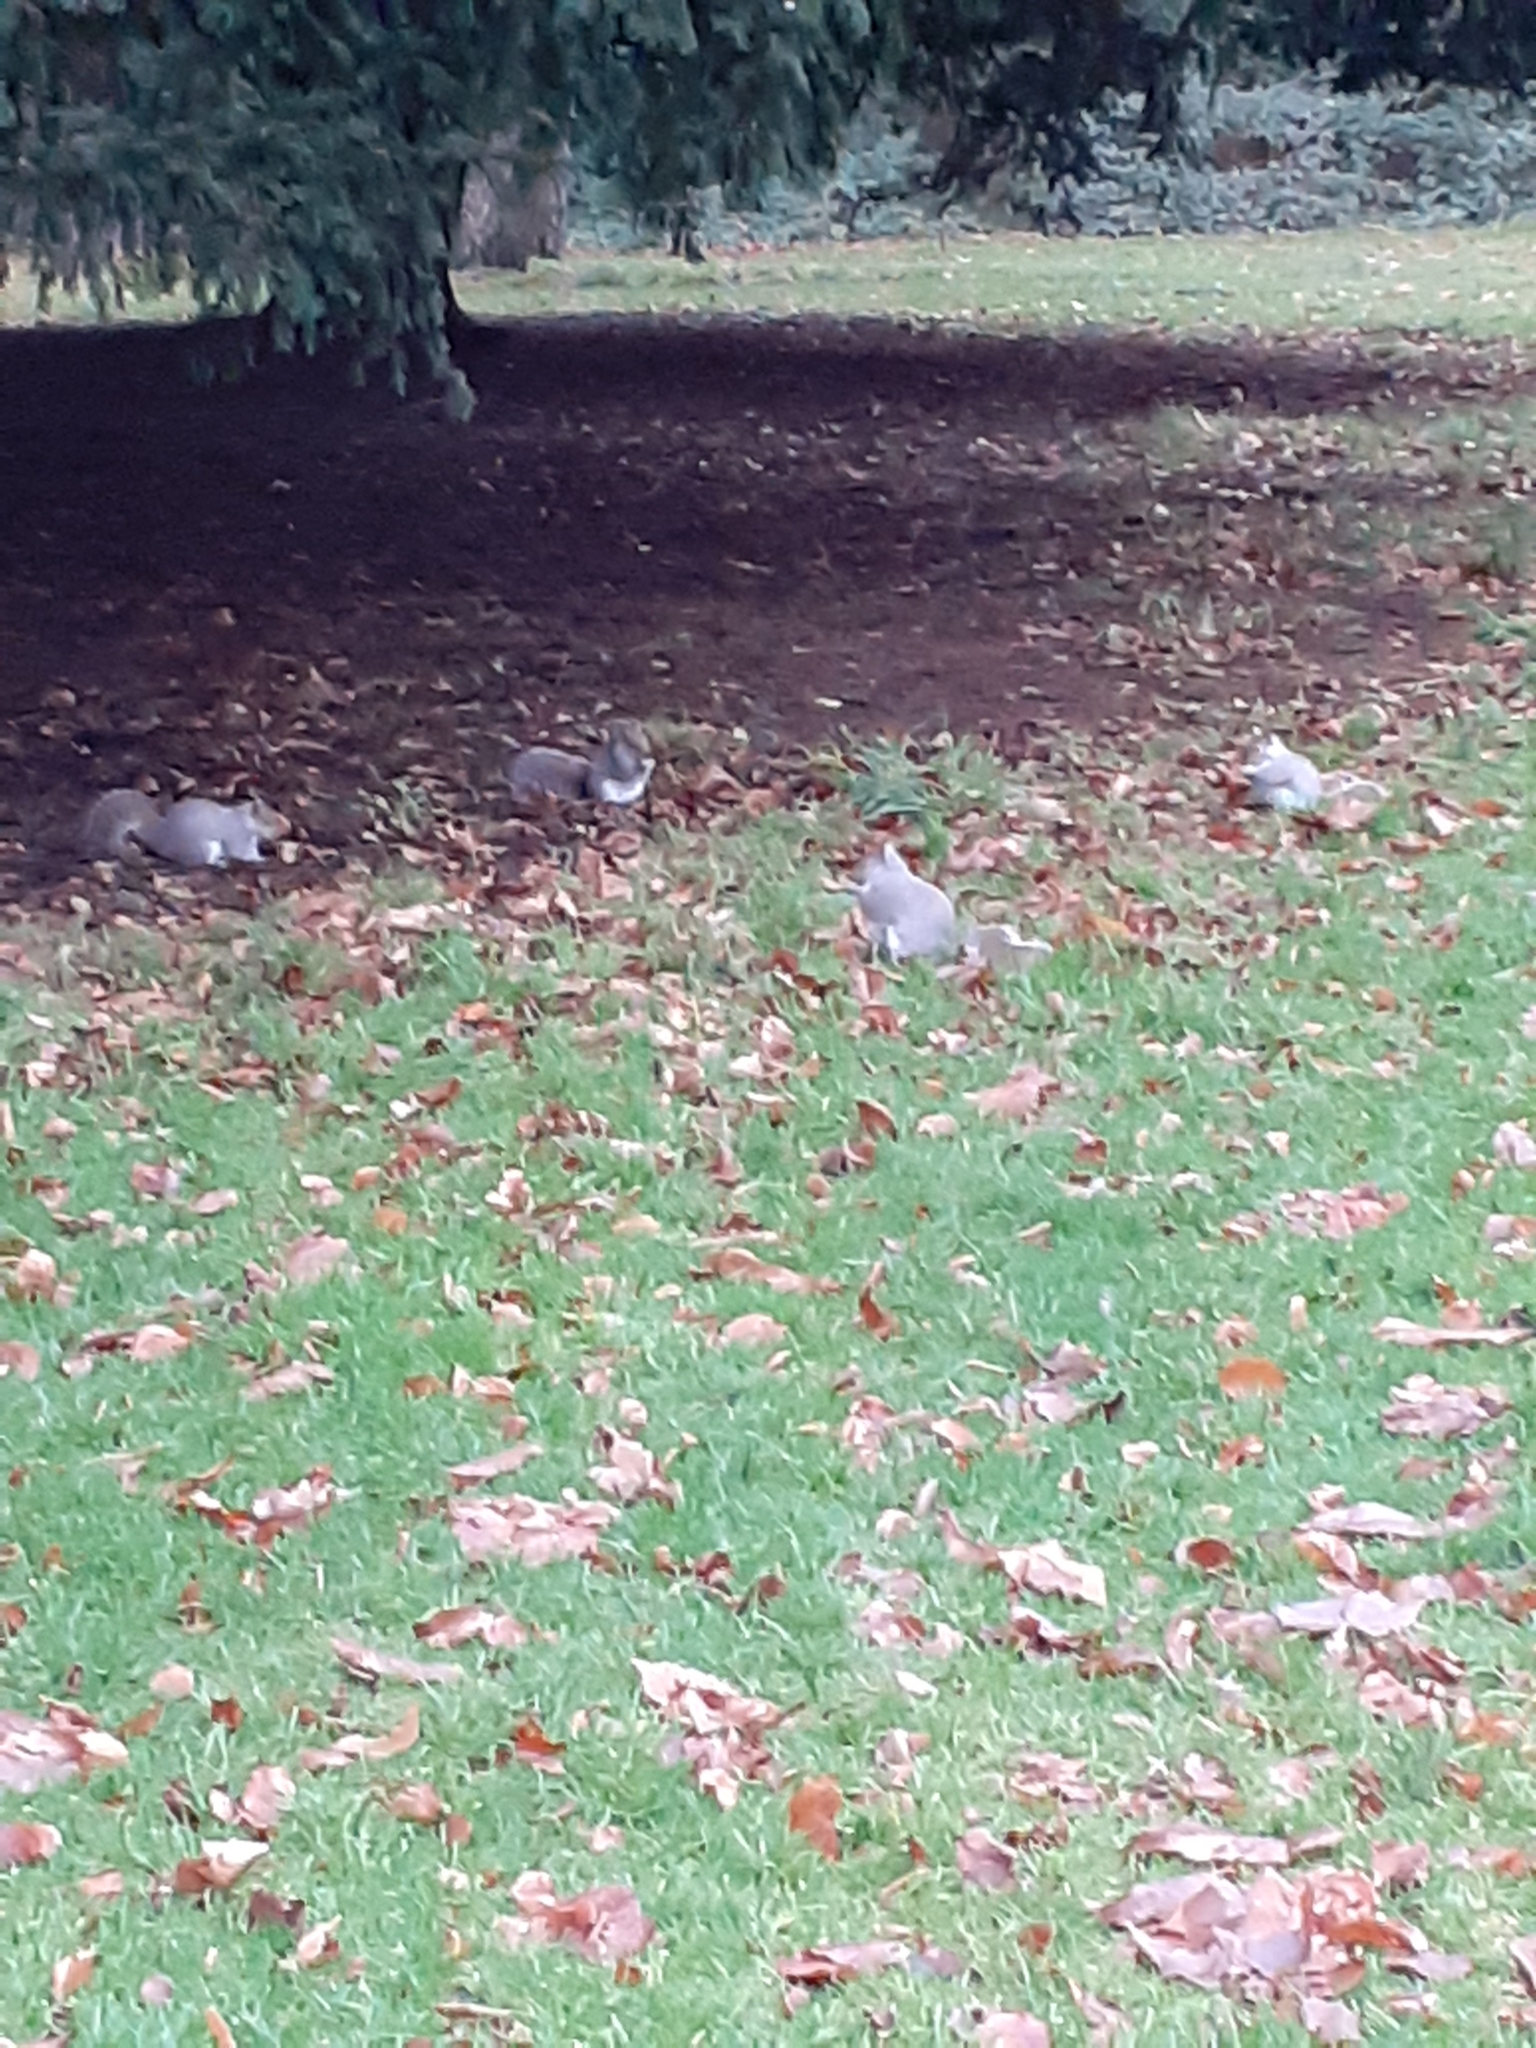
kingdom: Animalia
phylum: Chordata
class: Mammalia
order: Rodentia
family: Sciuridae
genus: Sciurus
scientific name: Sciurus carolinensis
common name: Eastern gray squirrel
